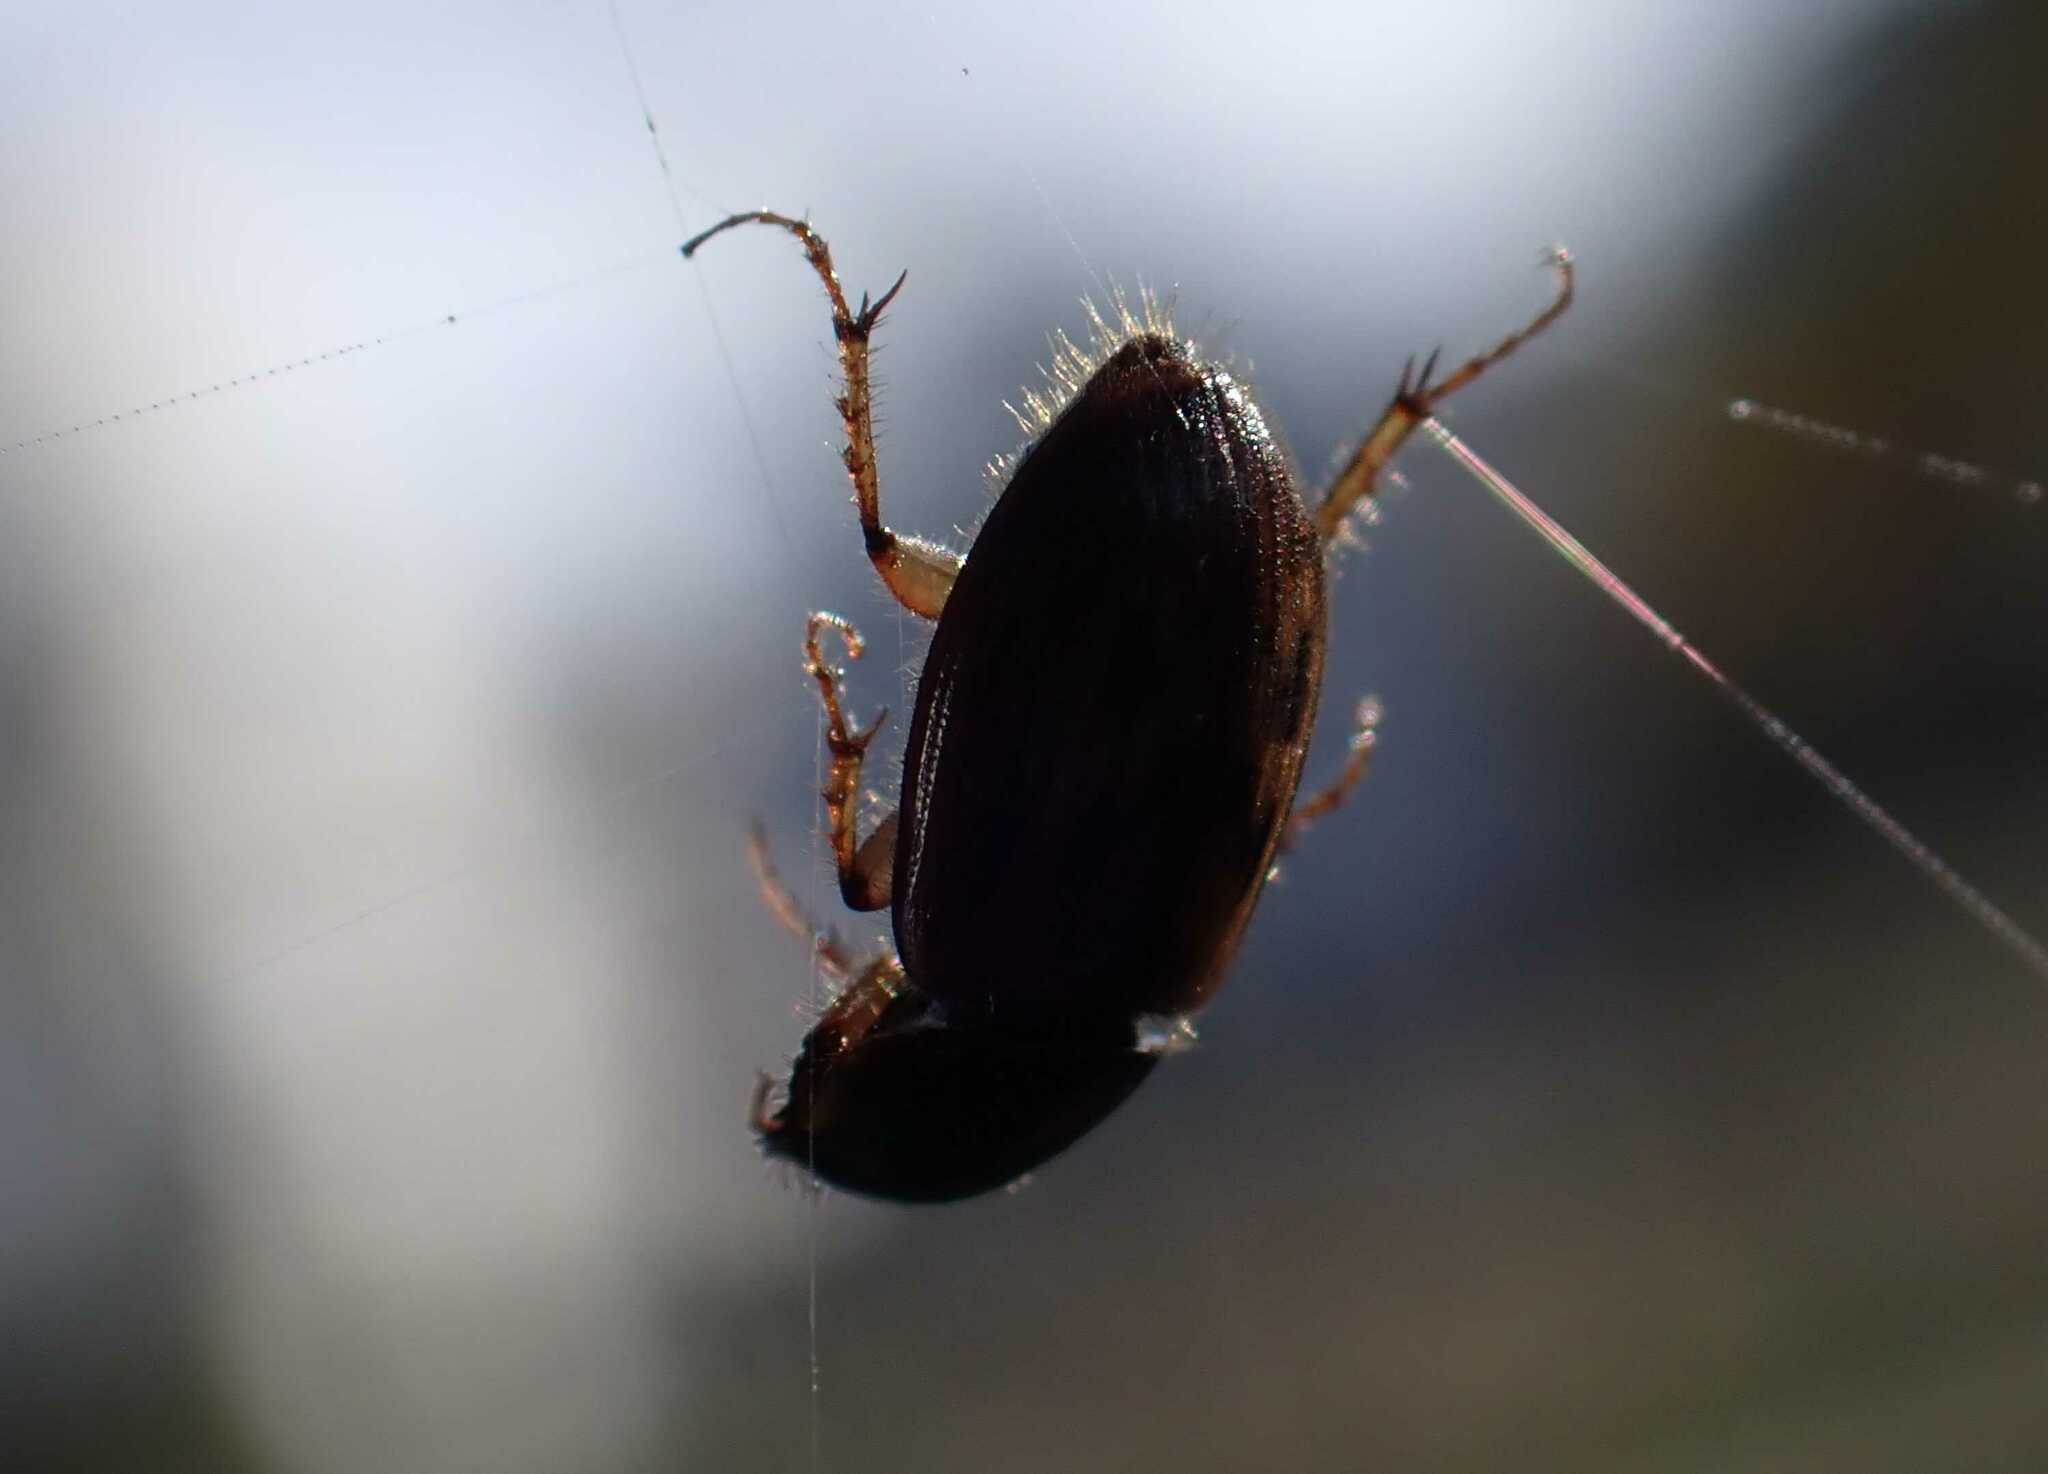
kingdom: Animalia
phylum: Arthropoda
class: Insecta
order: Coleoptera
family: Scarabaeidae
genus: Nimbus
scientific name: Nimbus contaminatus
